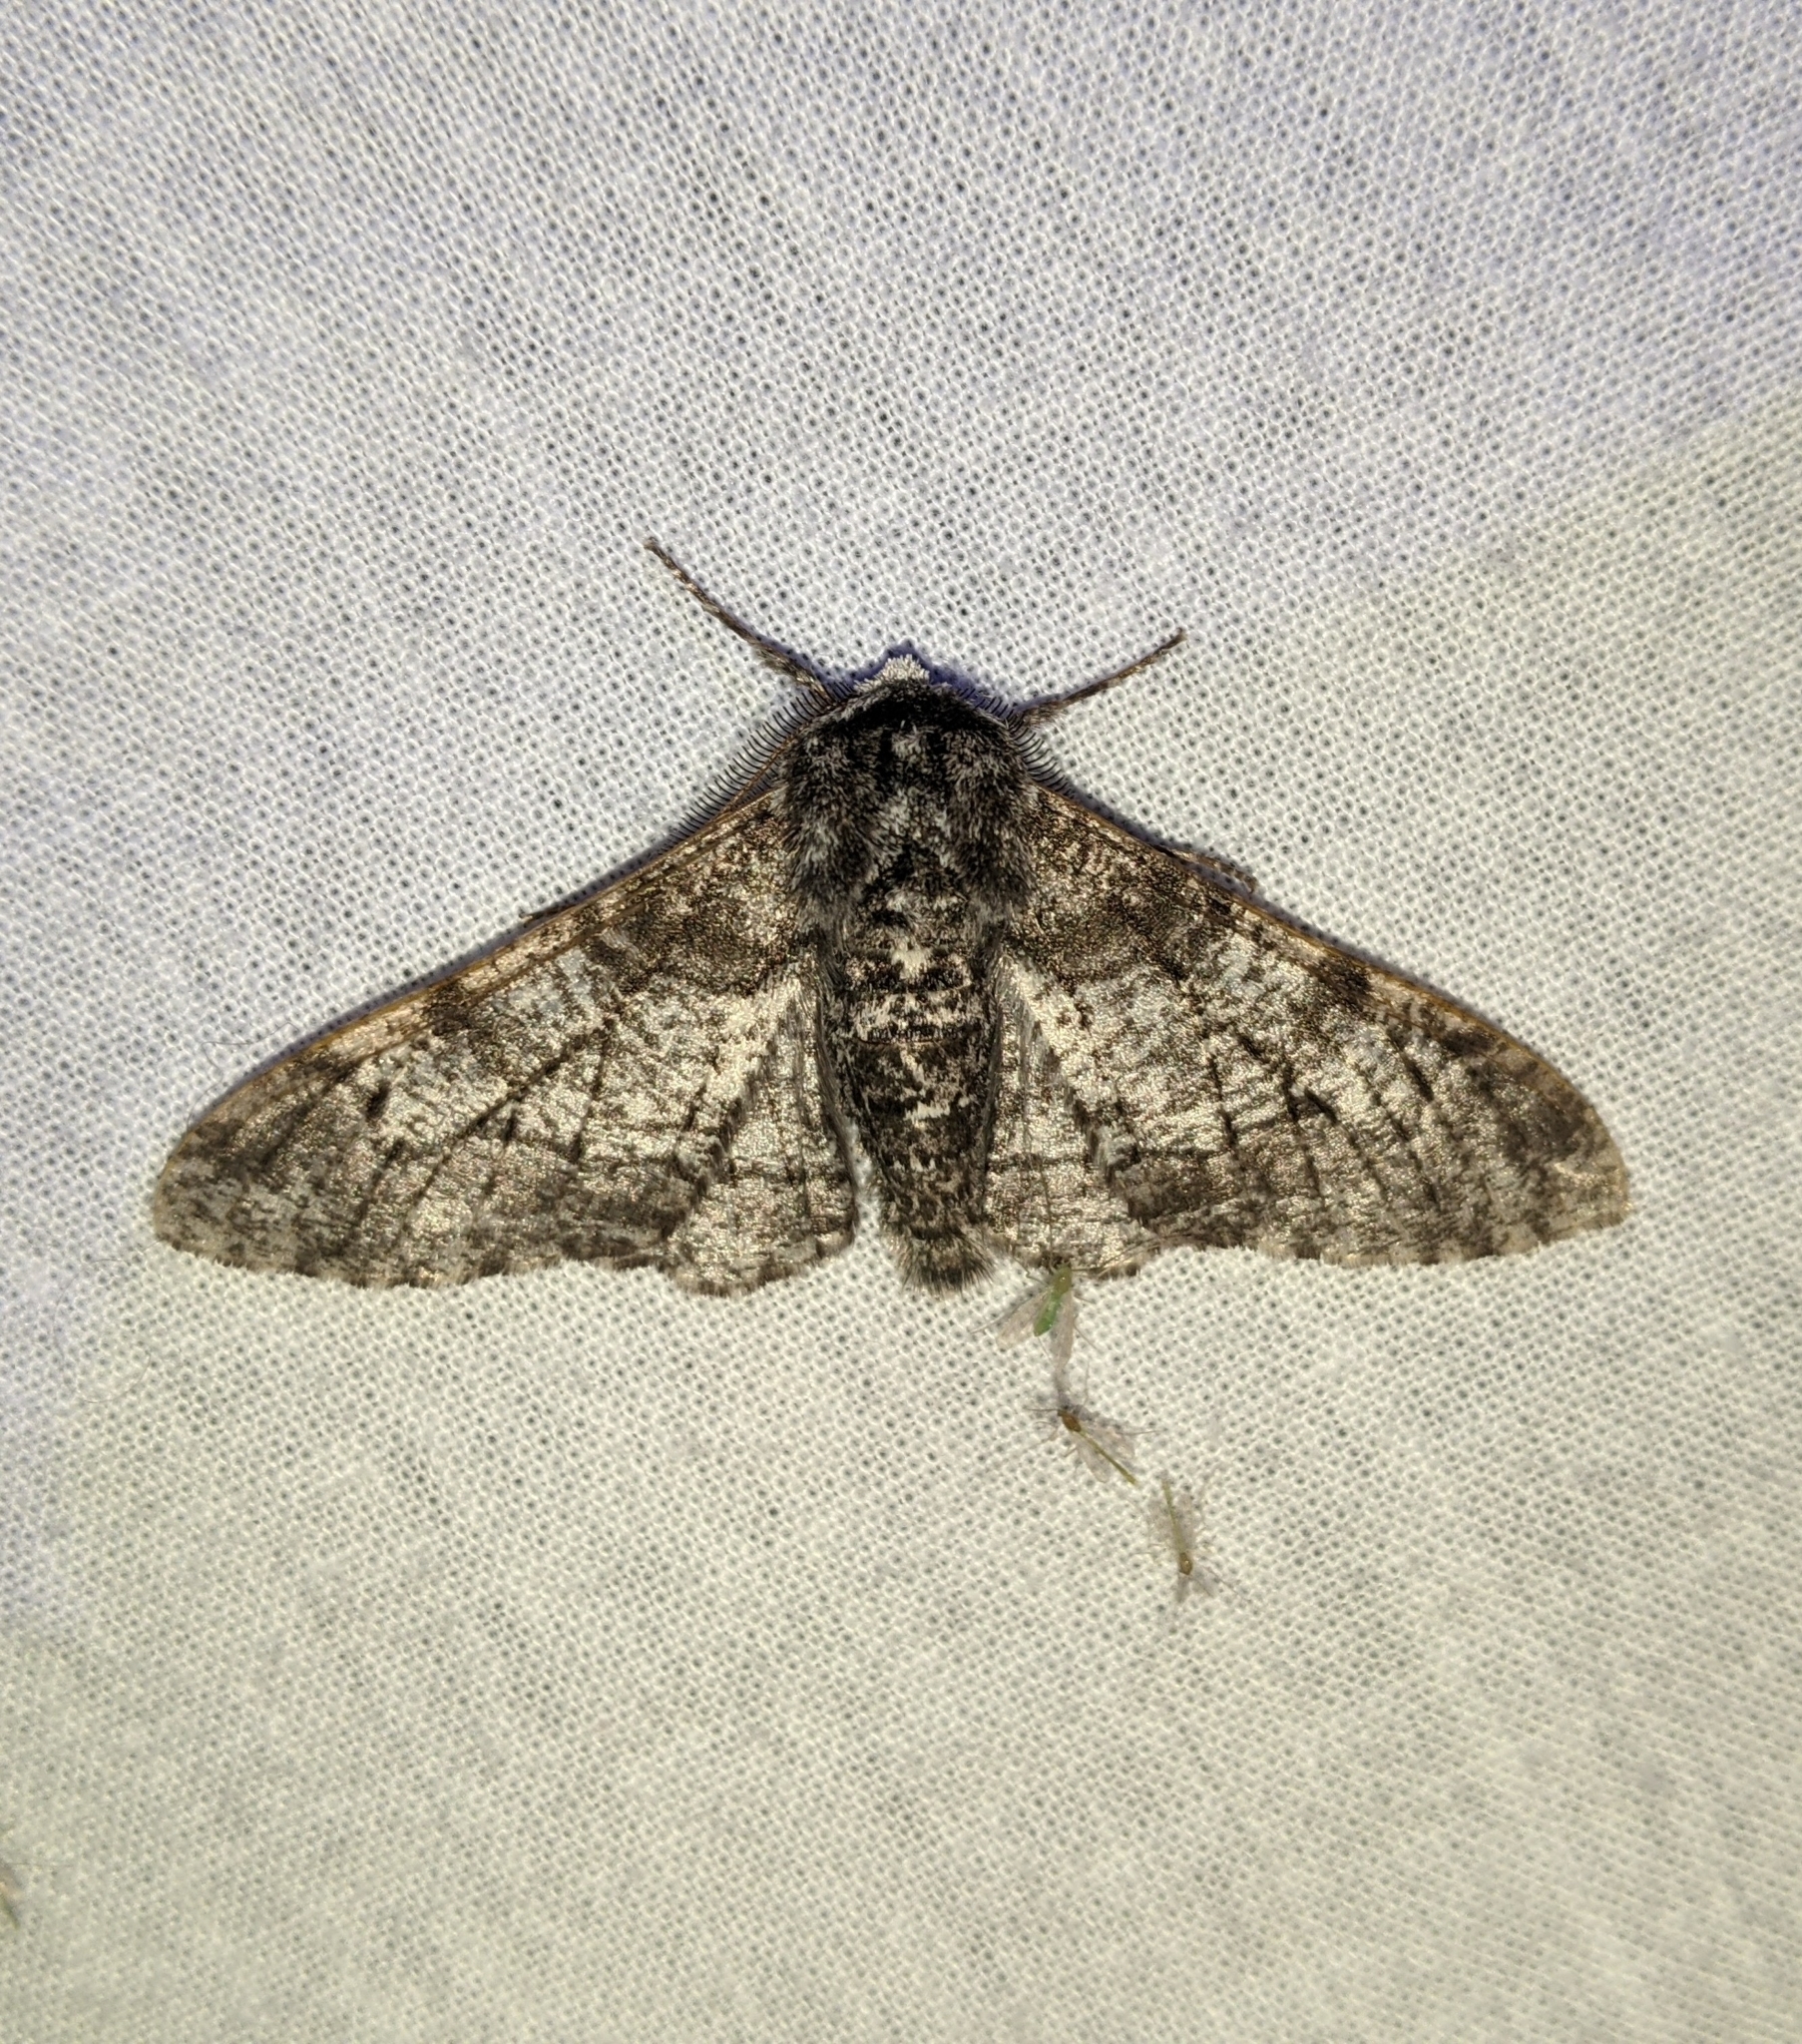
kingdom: Animalia
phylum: Arthropoda
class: Insecta
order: Lepidoptera
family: Geometridae
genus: Biston
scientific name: Biston betularia
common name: Peppered moth
